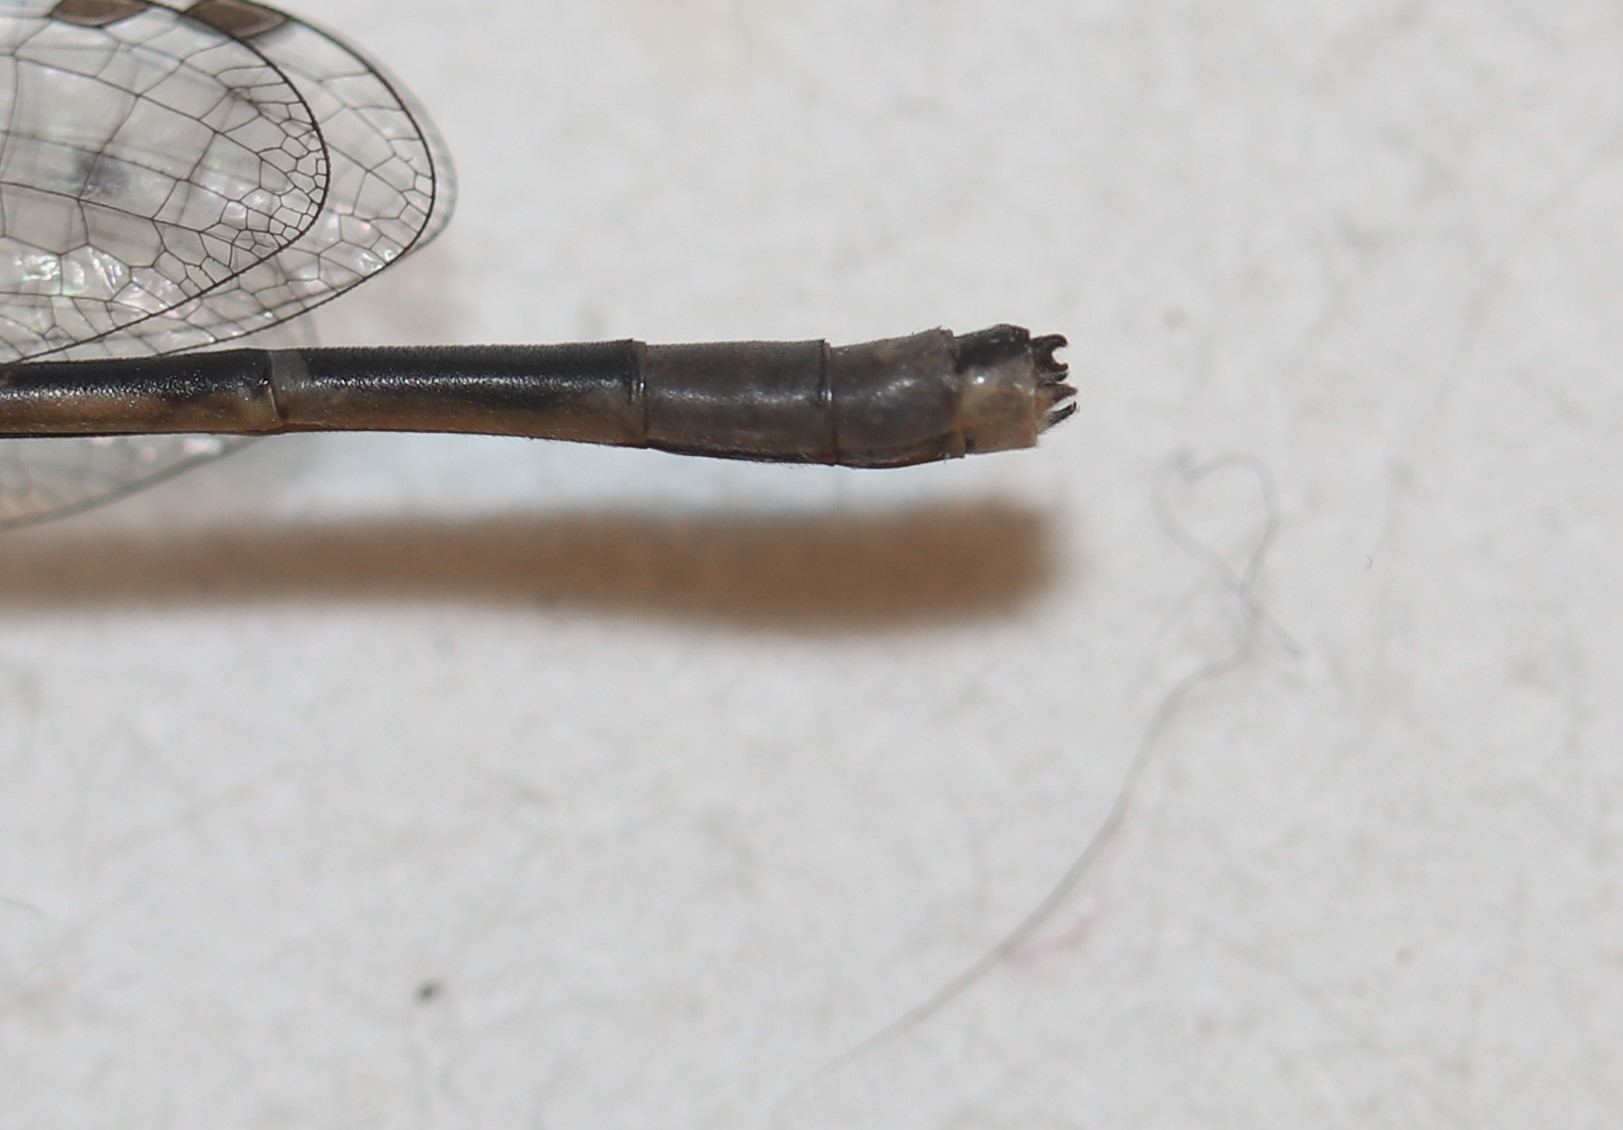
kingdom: Animalia
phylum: Arthropoda
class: Insecta
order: Odonata
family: Coenagrionidae
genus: Enallagma
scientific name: Enallagma ebrium
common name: Marsh bluet
